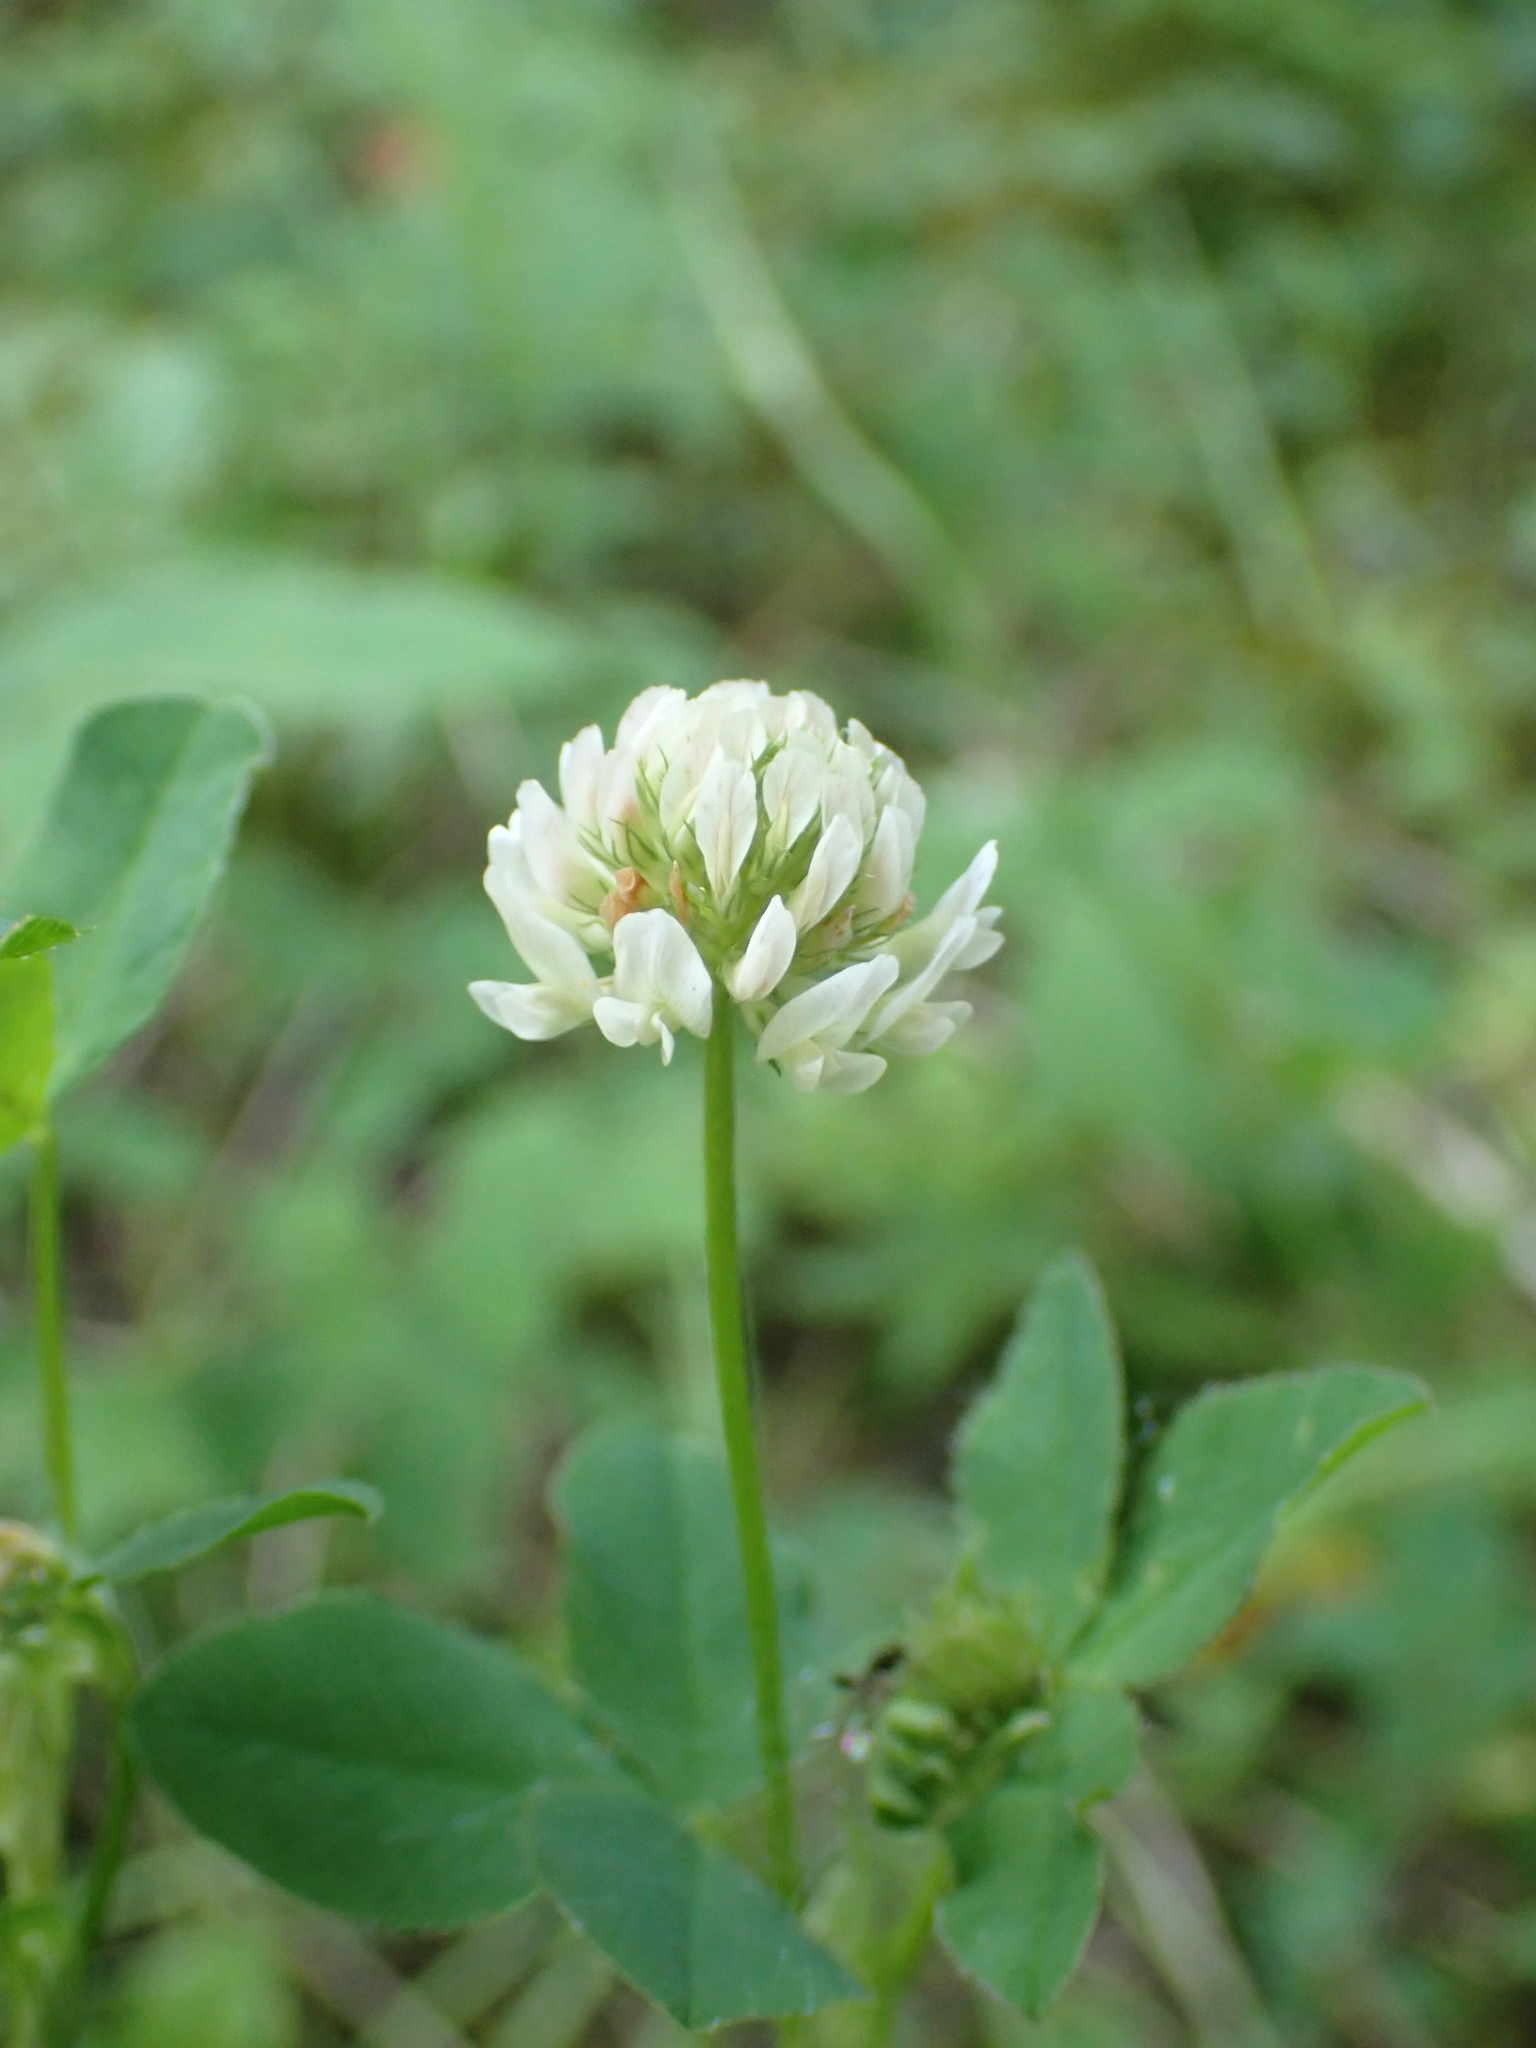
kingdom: Plantae
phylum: Tracheophyta
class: Magnoliopsida
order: Fabales
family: Fabaceae
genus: Trifolium
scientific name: Trifolium hybridum
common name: Alsike clover
